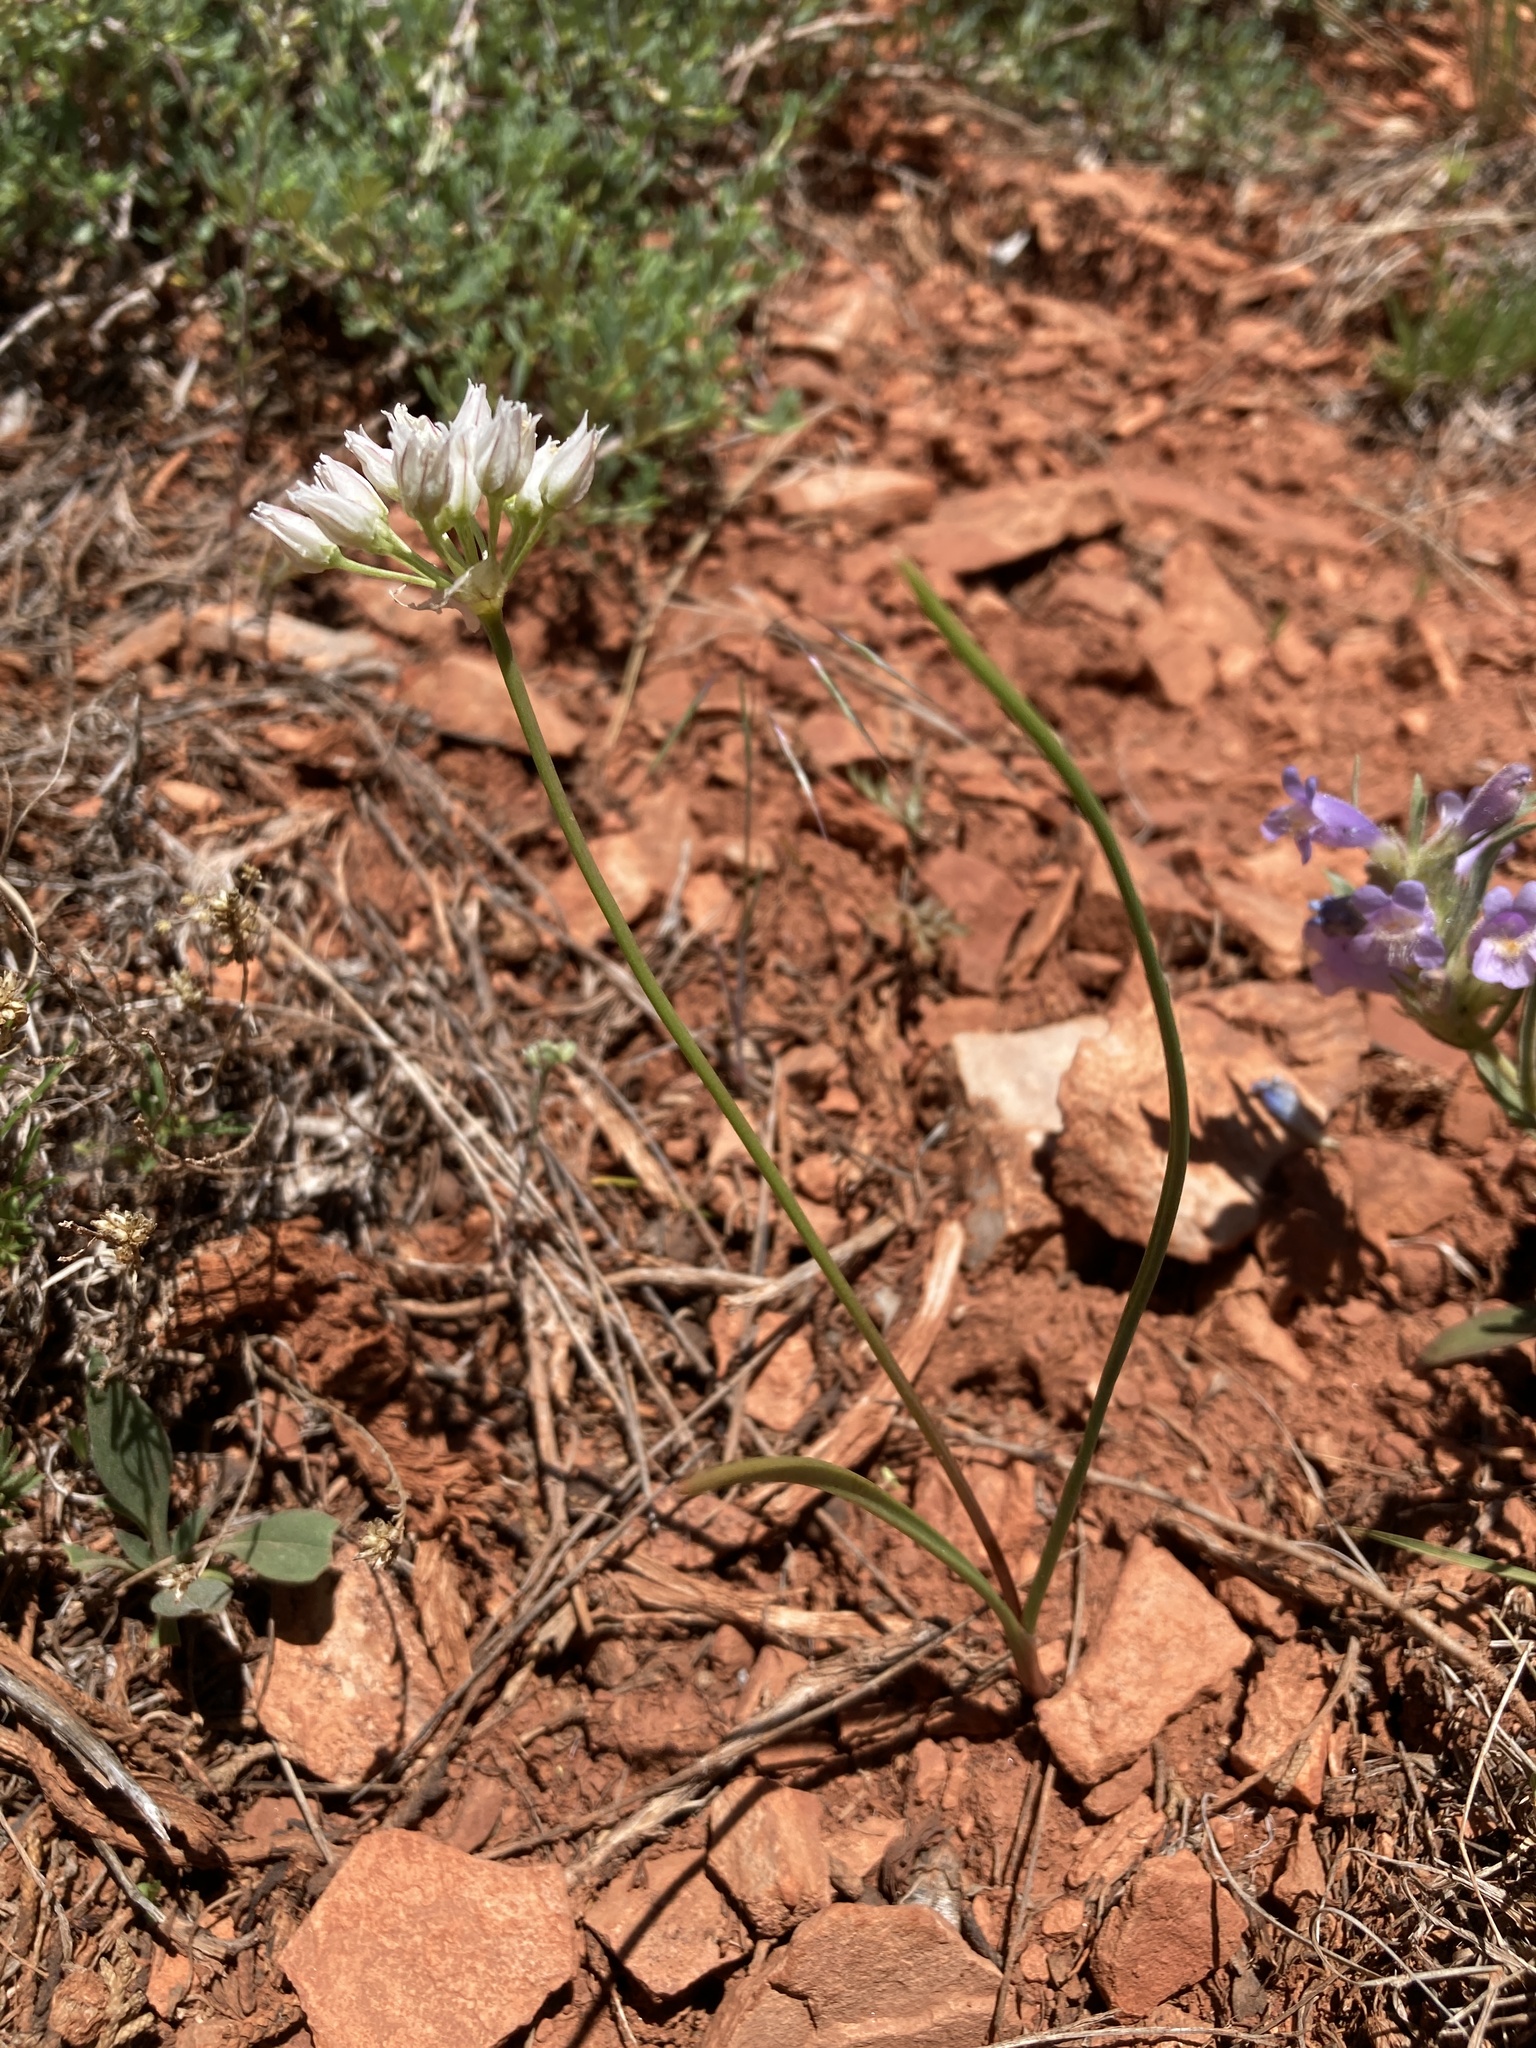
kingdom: Plantae
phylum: Tracheophyta
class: Liliopsida
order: Asparagales
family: Amaryllidaceae
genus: Allium
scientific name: Allium textile
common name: Prairie onion
